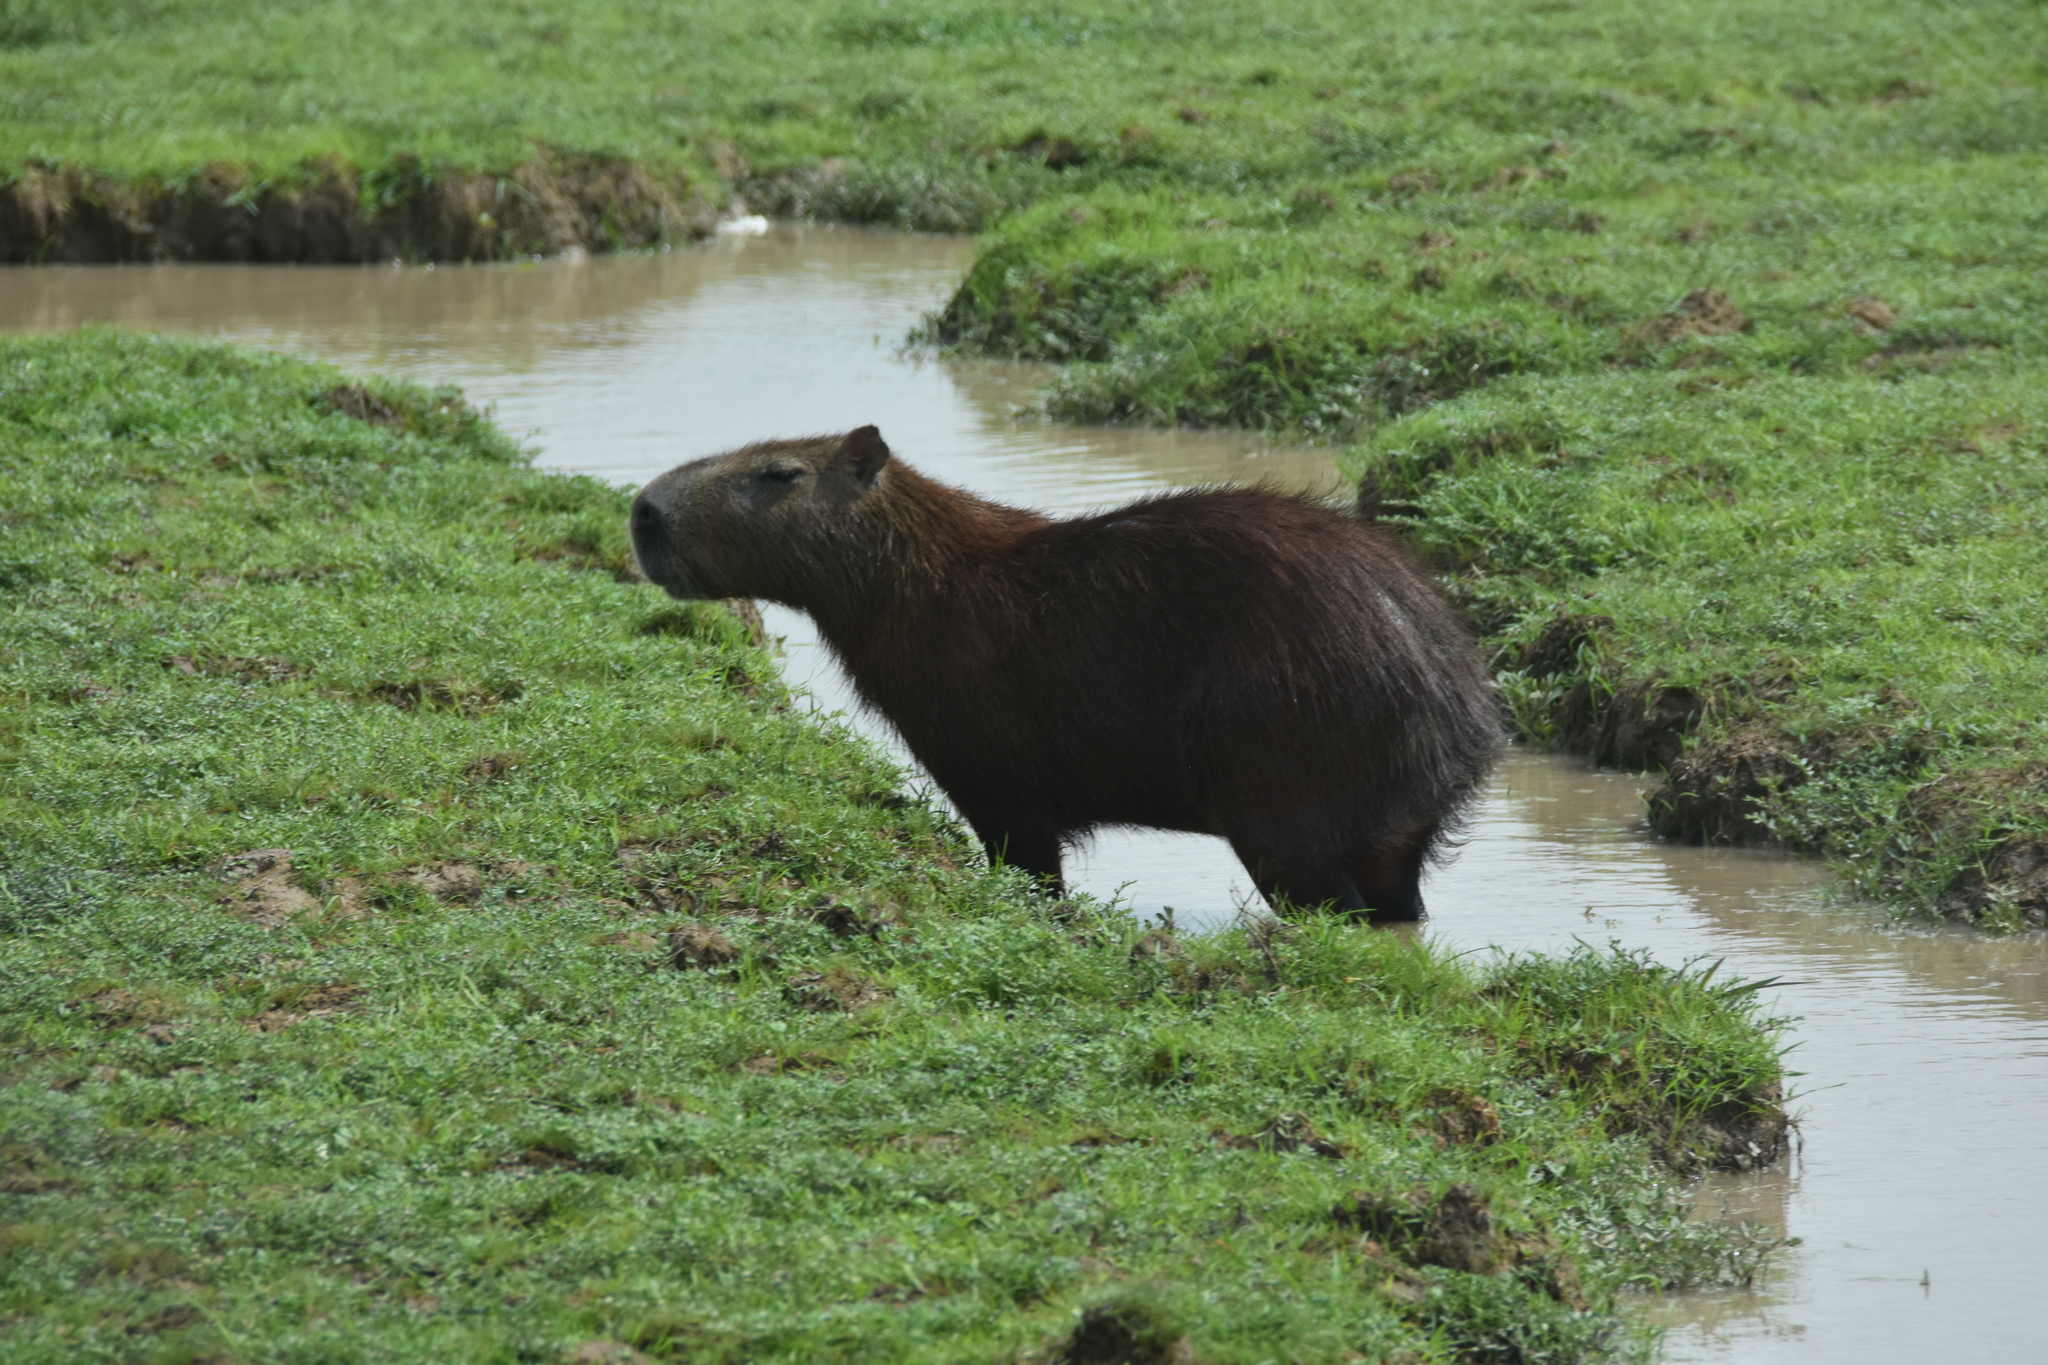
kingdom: Animalia
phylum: Chordata
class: Mammalia
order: Rodentia
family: Caviidae
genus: Hydrochoerus
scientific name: Hydrochoerus hydrochaeris
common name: Capybara
